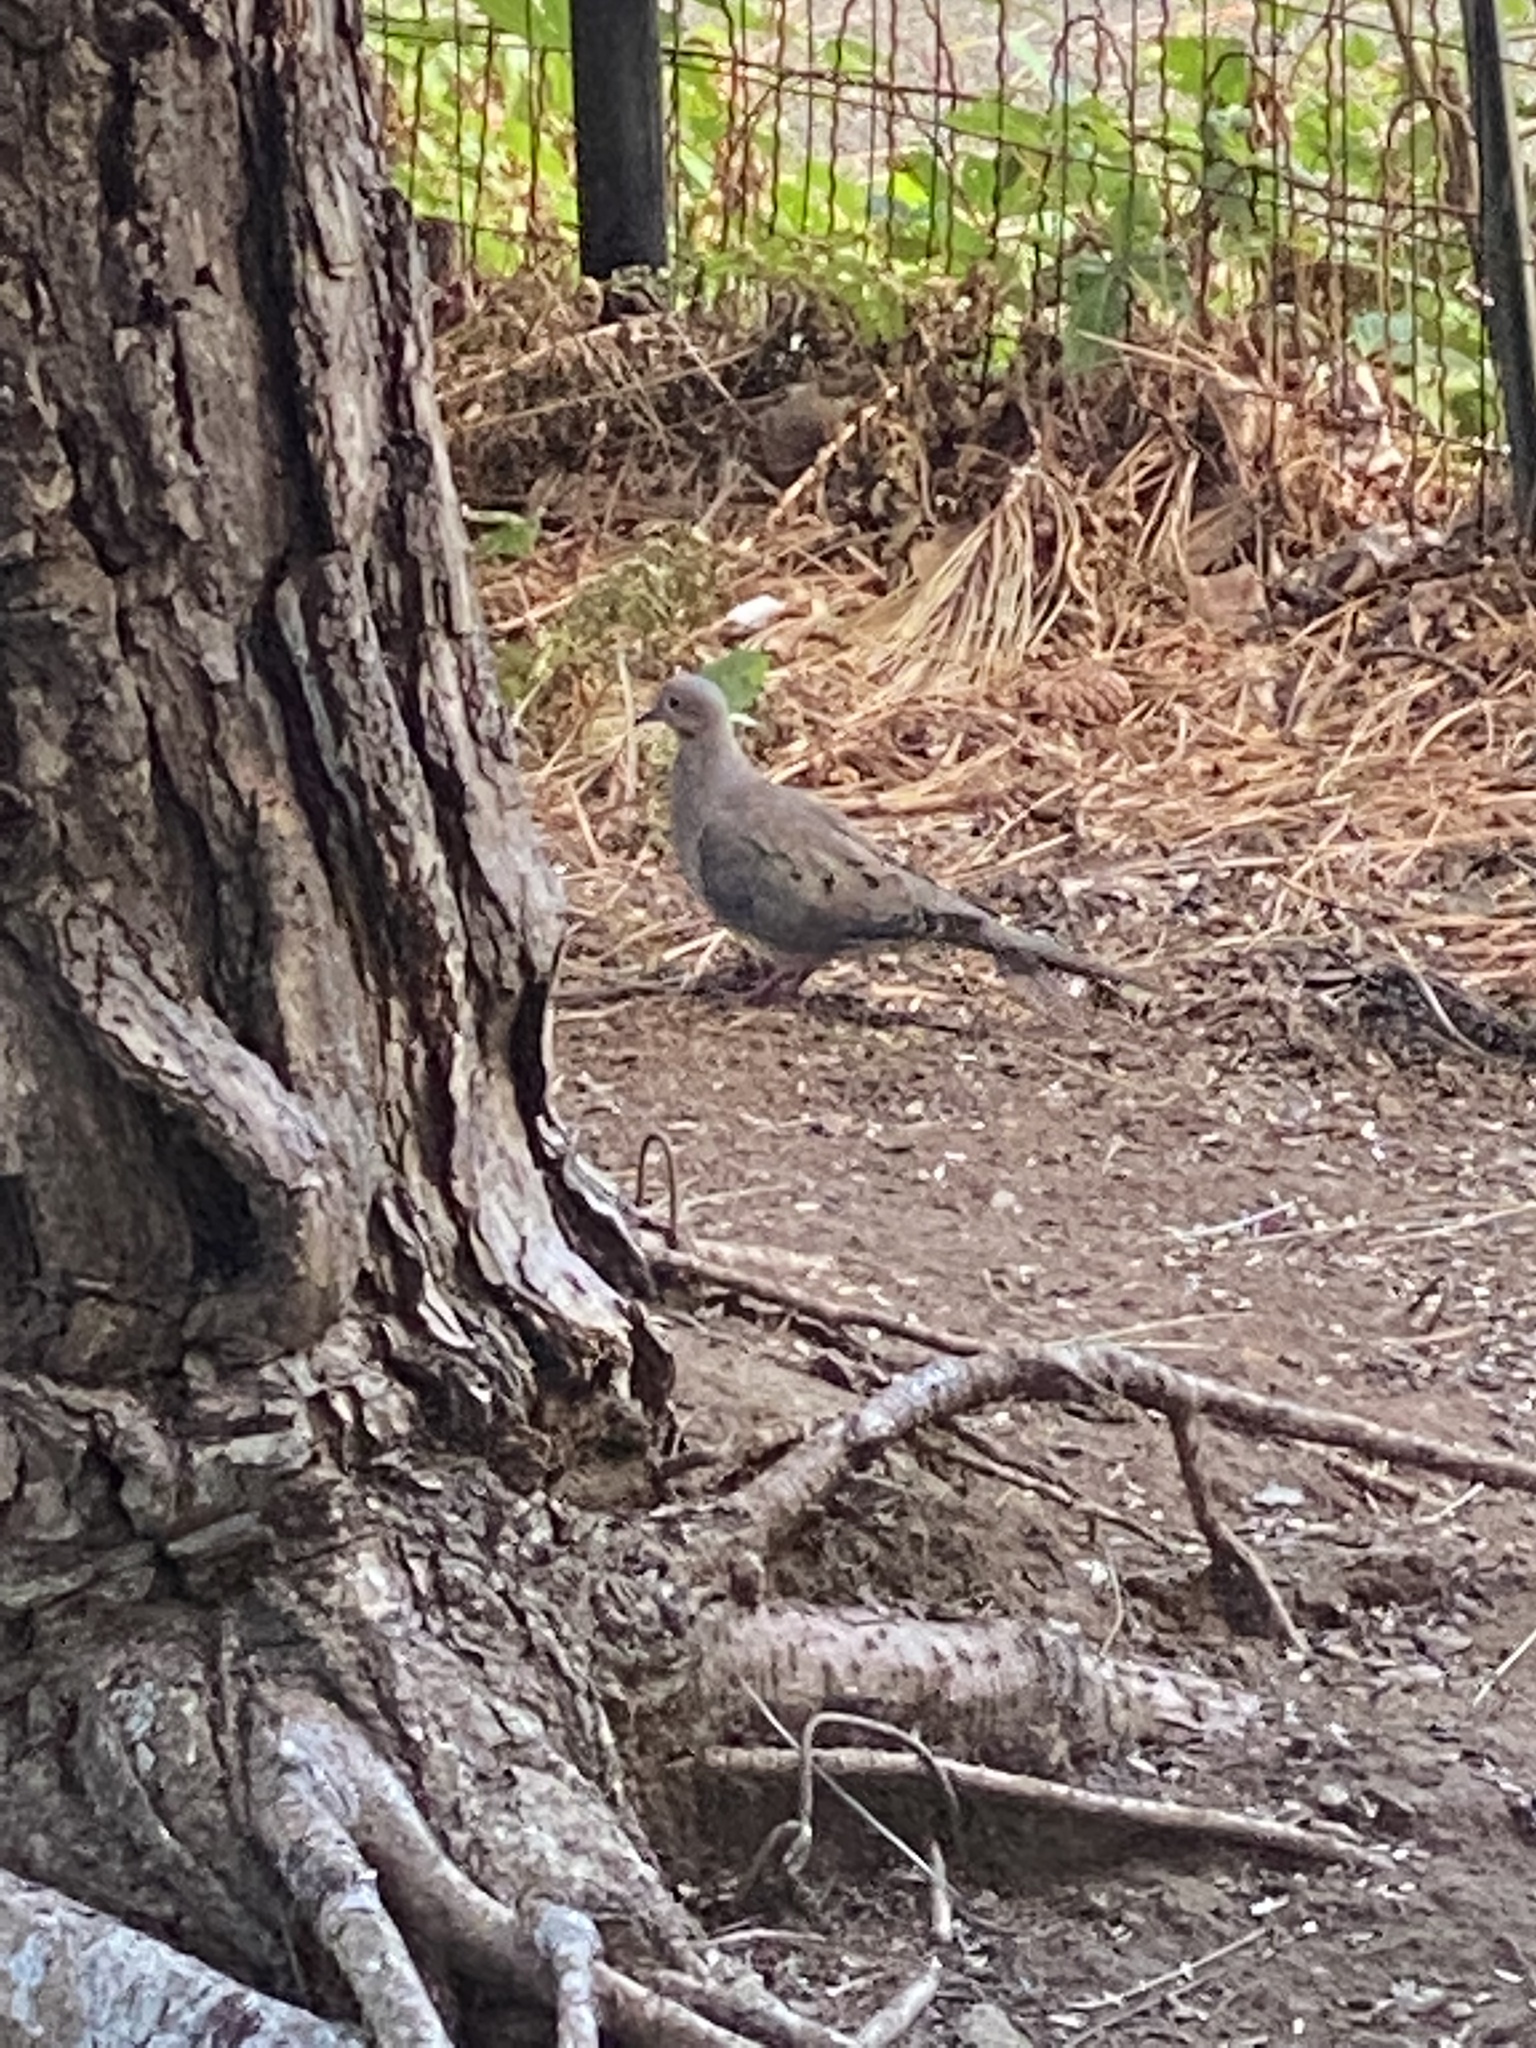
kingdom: Animalia
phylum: Chordata
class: Aves
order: Columbiformes
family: Columbidae
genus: Zenaida
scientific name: Zenaida macroura
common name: Mourning dove
